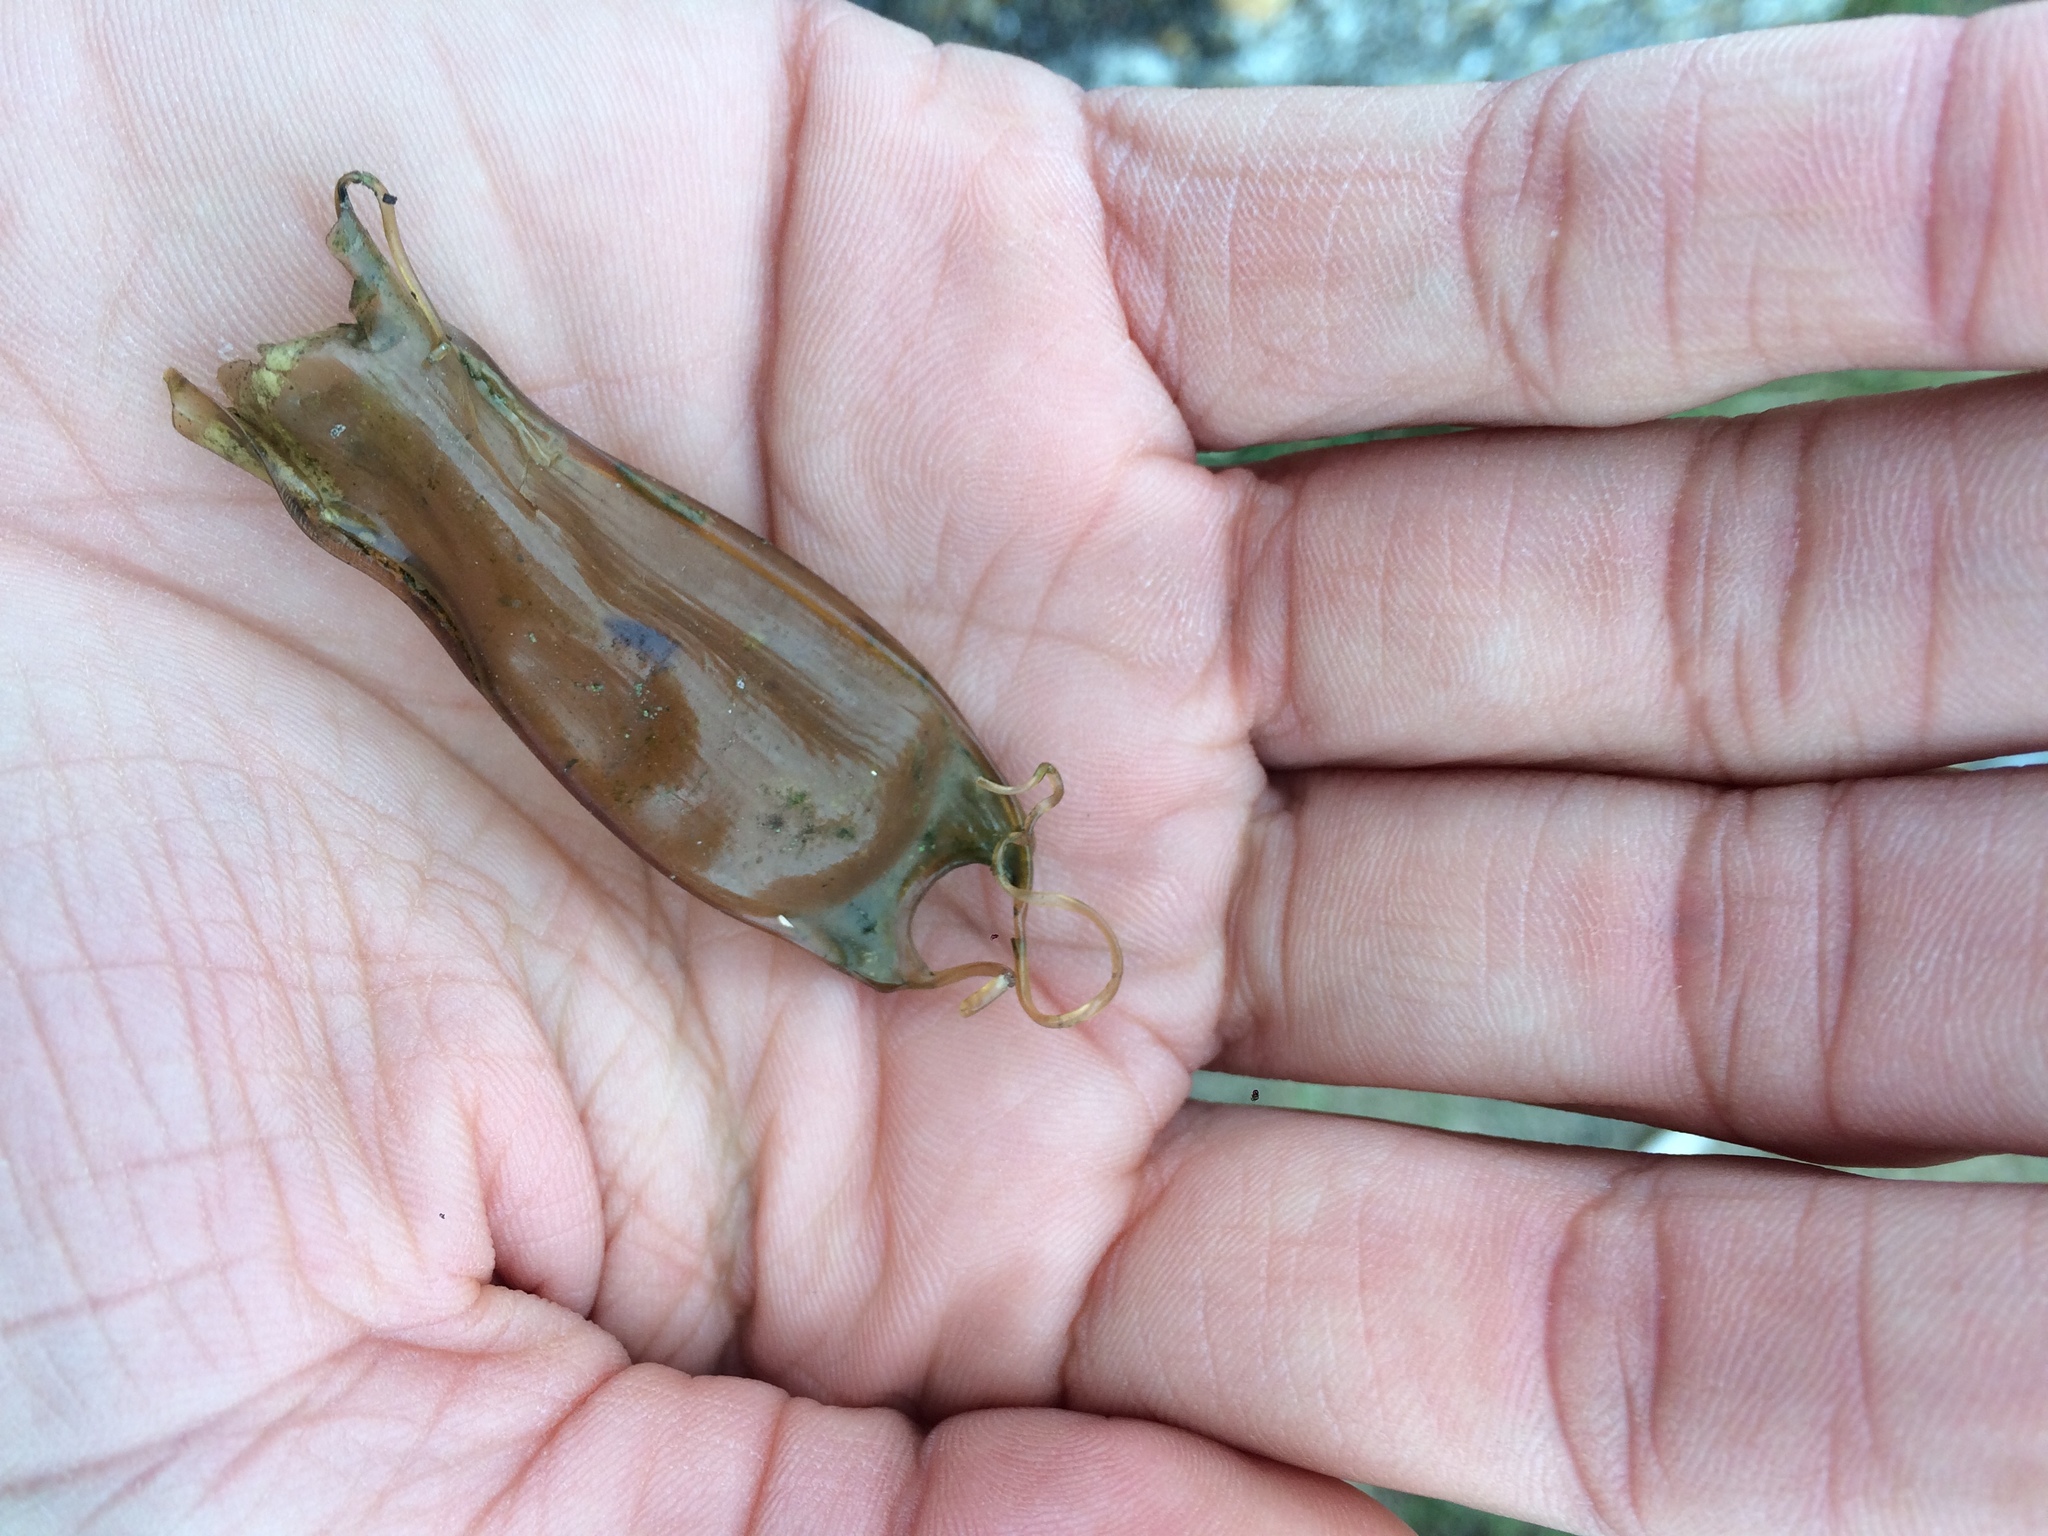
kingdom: Animalia
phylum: Chordata
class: Elasmobranchii
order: Carcharhiniformes
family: Scyliorhinidae
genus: Scyliorhinus
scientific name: Scyliorhinus canicula
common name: Lesser spotted dogfish
